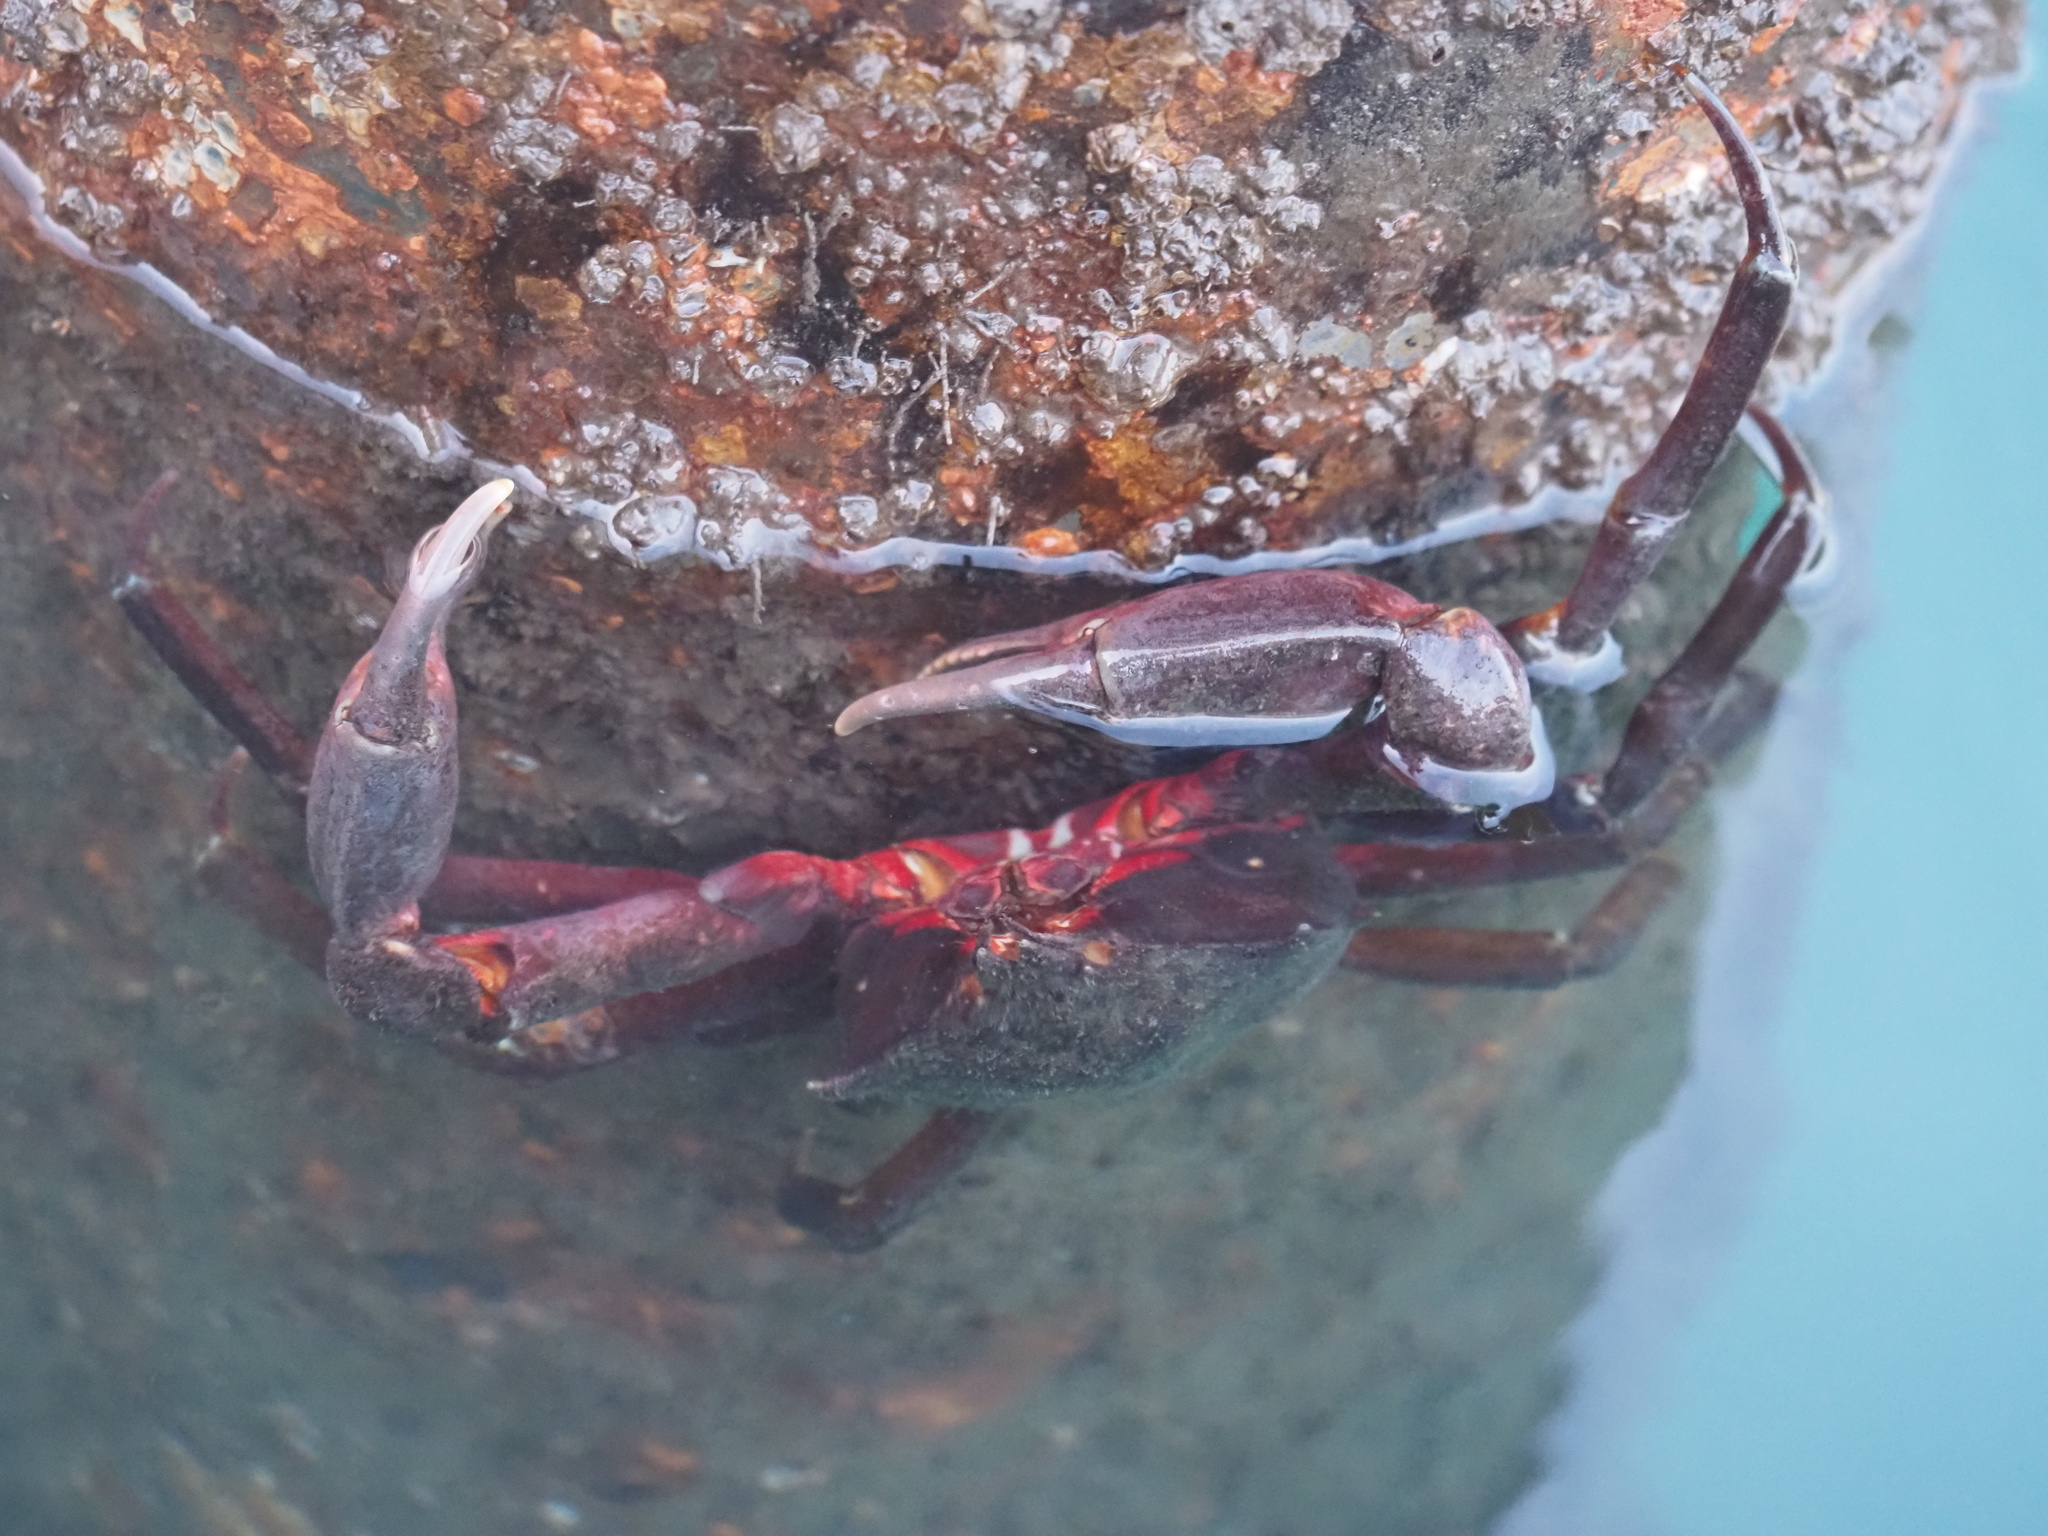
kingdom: Animalia
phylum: Arthropoda
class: Malacostraca
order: Decapoda
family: Epialtidae
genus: Pugettia
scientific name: Pugettia producta
